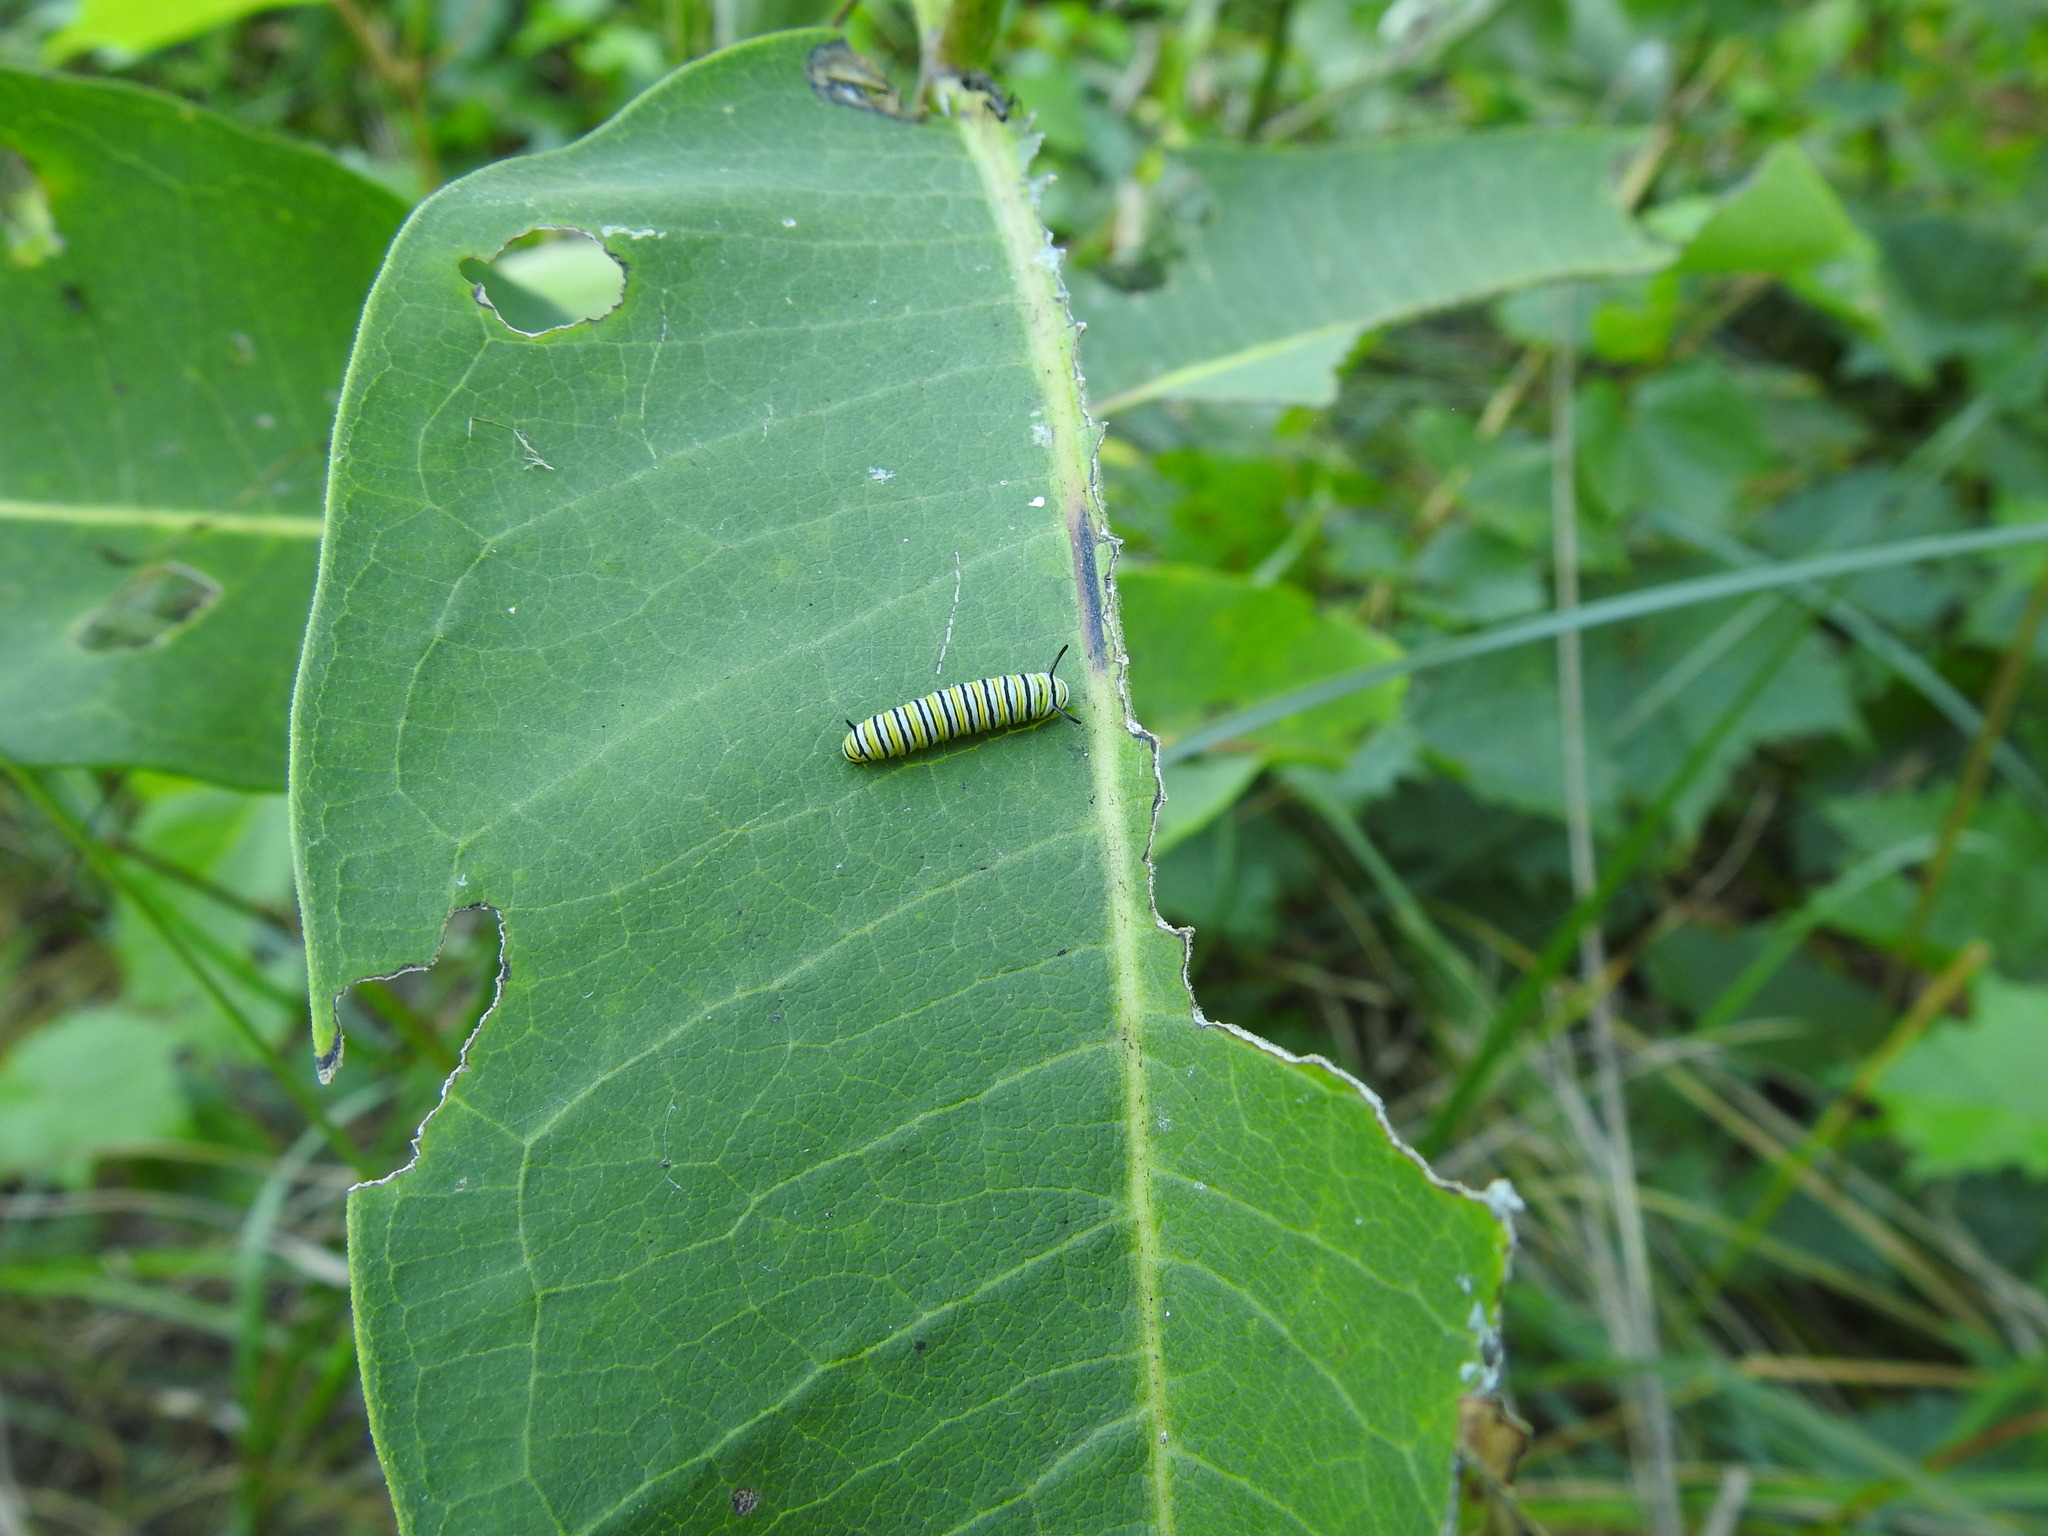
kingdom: Animalia
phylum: Arthropoda
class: Insecta
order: Lepidoptera
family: Nymphalidae
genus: Danaus
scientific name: Danaus plexippus
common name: Monarch
